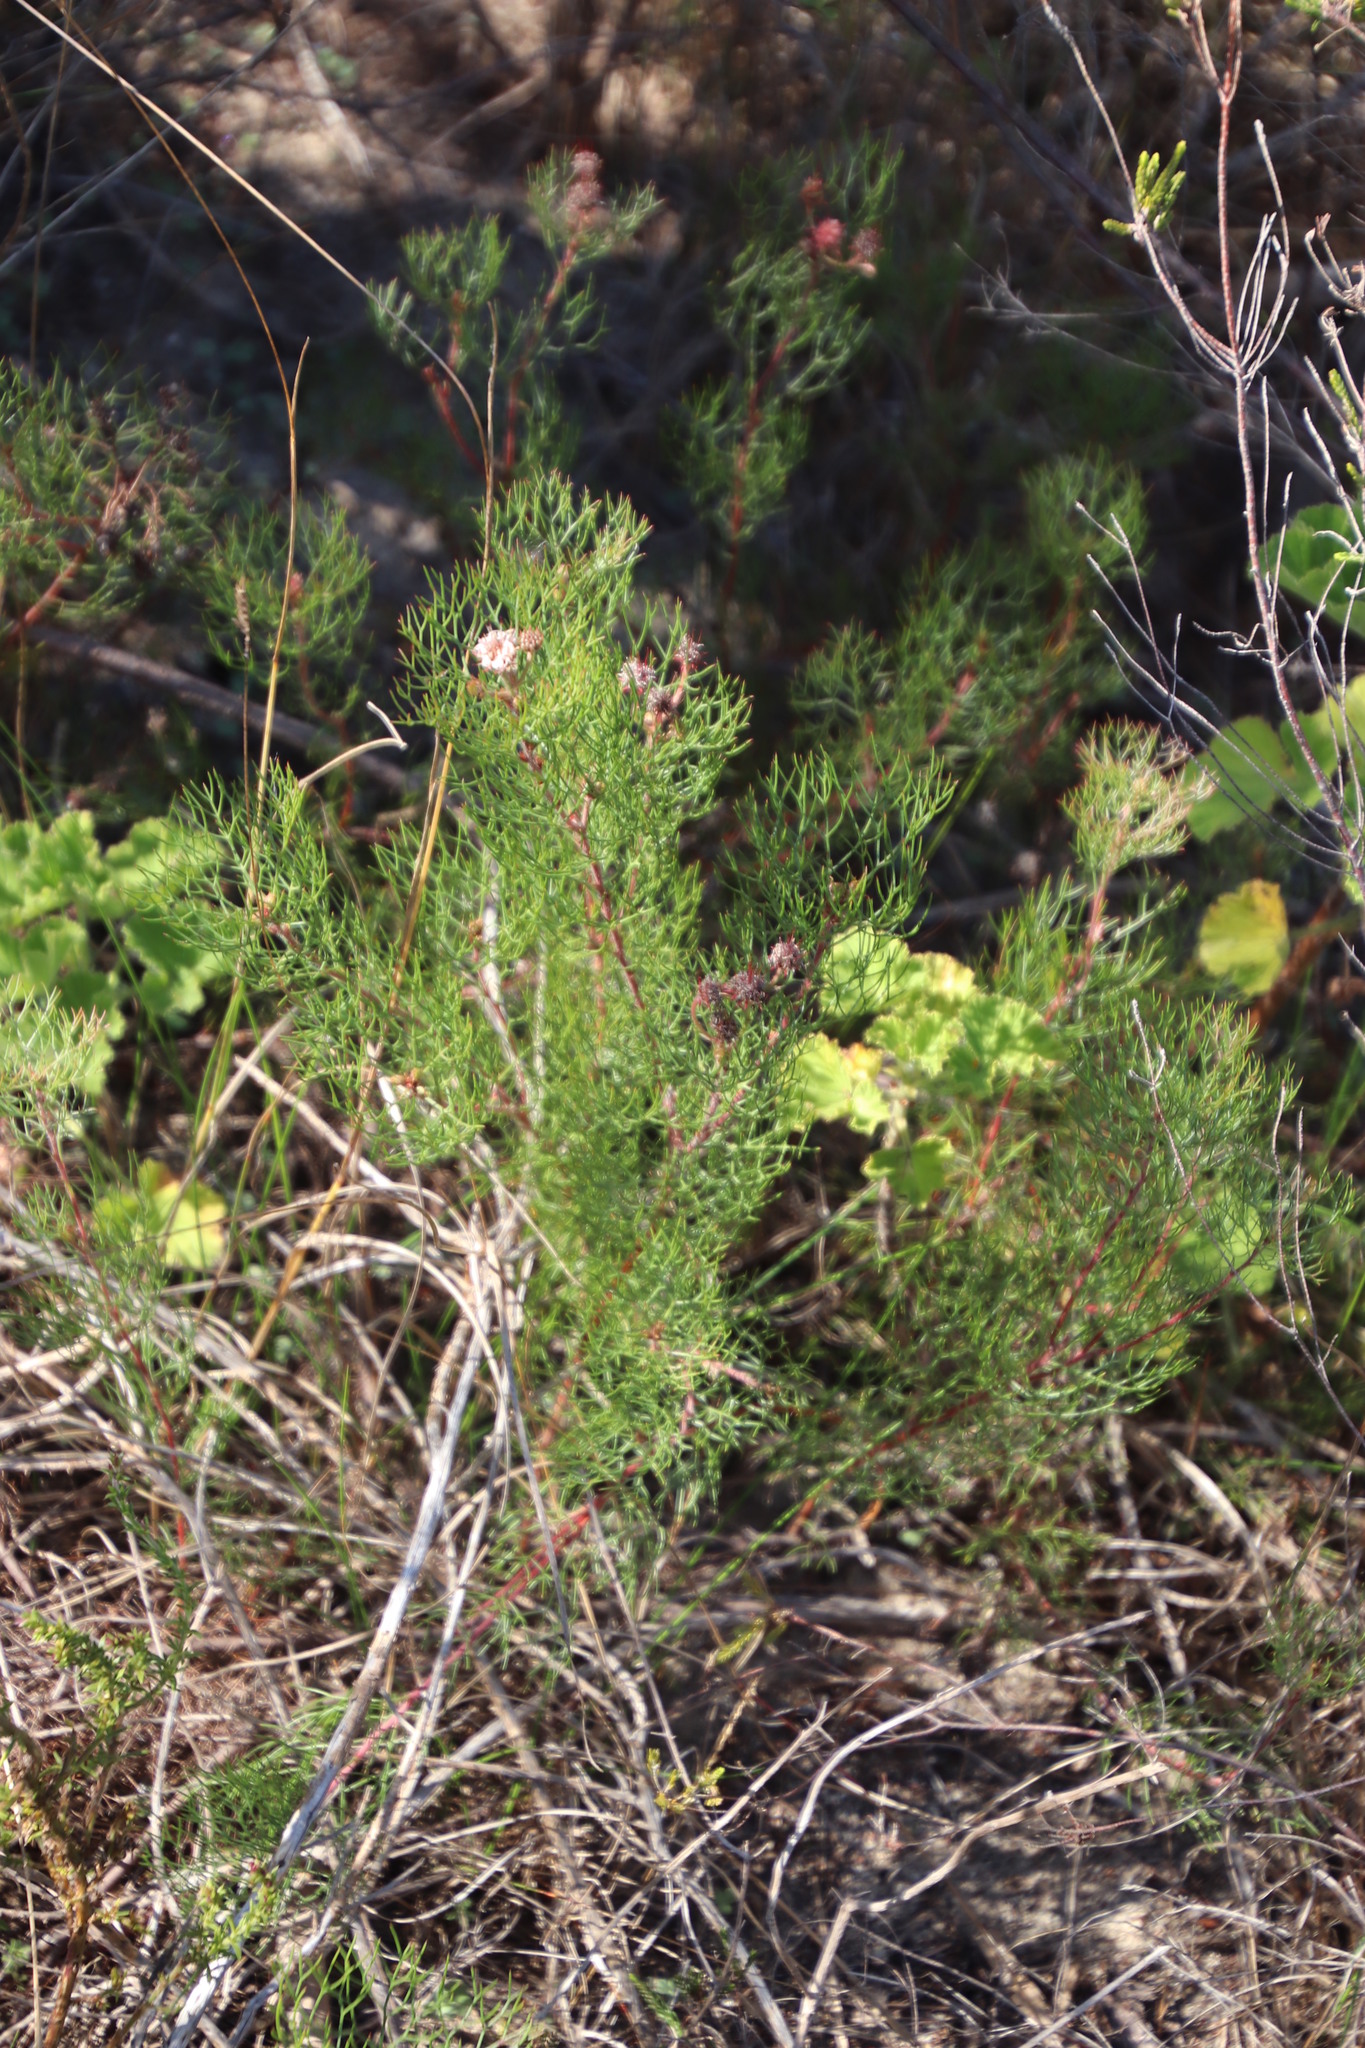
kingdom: Plantae
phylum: Tracheophyta
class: Magnoliopsida
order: Proteales
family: Proteaceae
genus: Serruria
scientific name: Serruria fasciflora
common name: Common pin spiderhead
